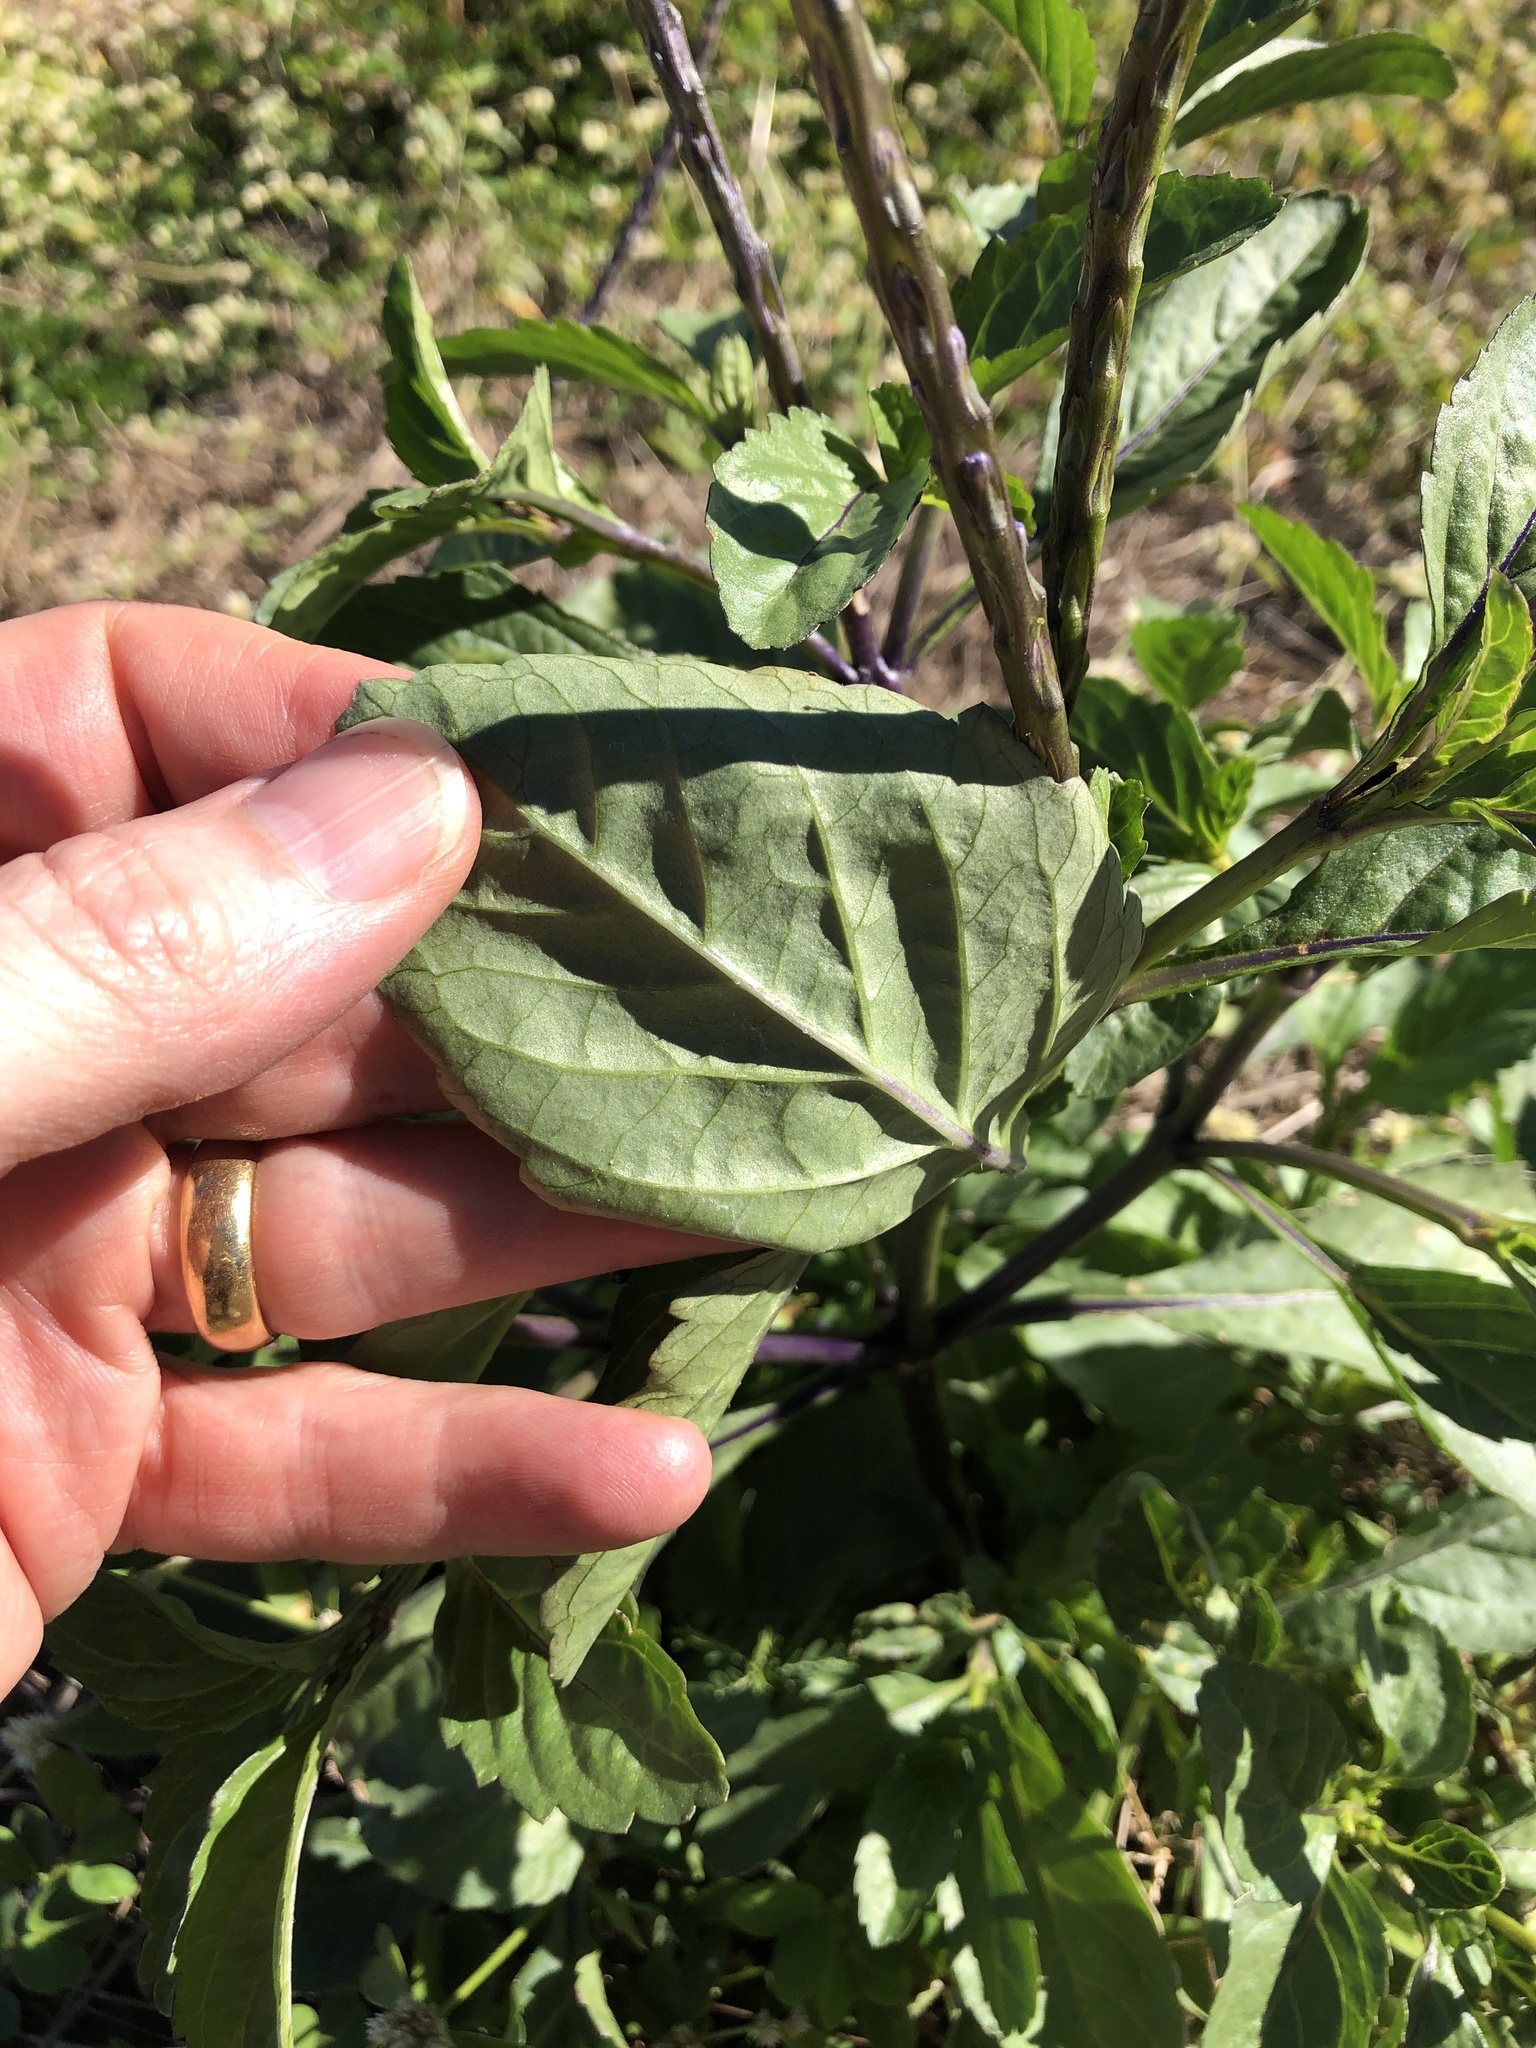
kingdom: Plantae
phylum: Tracheophyta
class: Magnoliopsida
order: Lamiales
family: Verbenaceae
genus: Stachytarpheta
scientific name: Stachytarpheta jamaicensis
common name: Light-blue snakeweed
